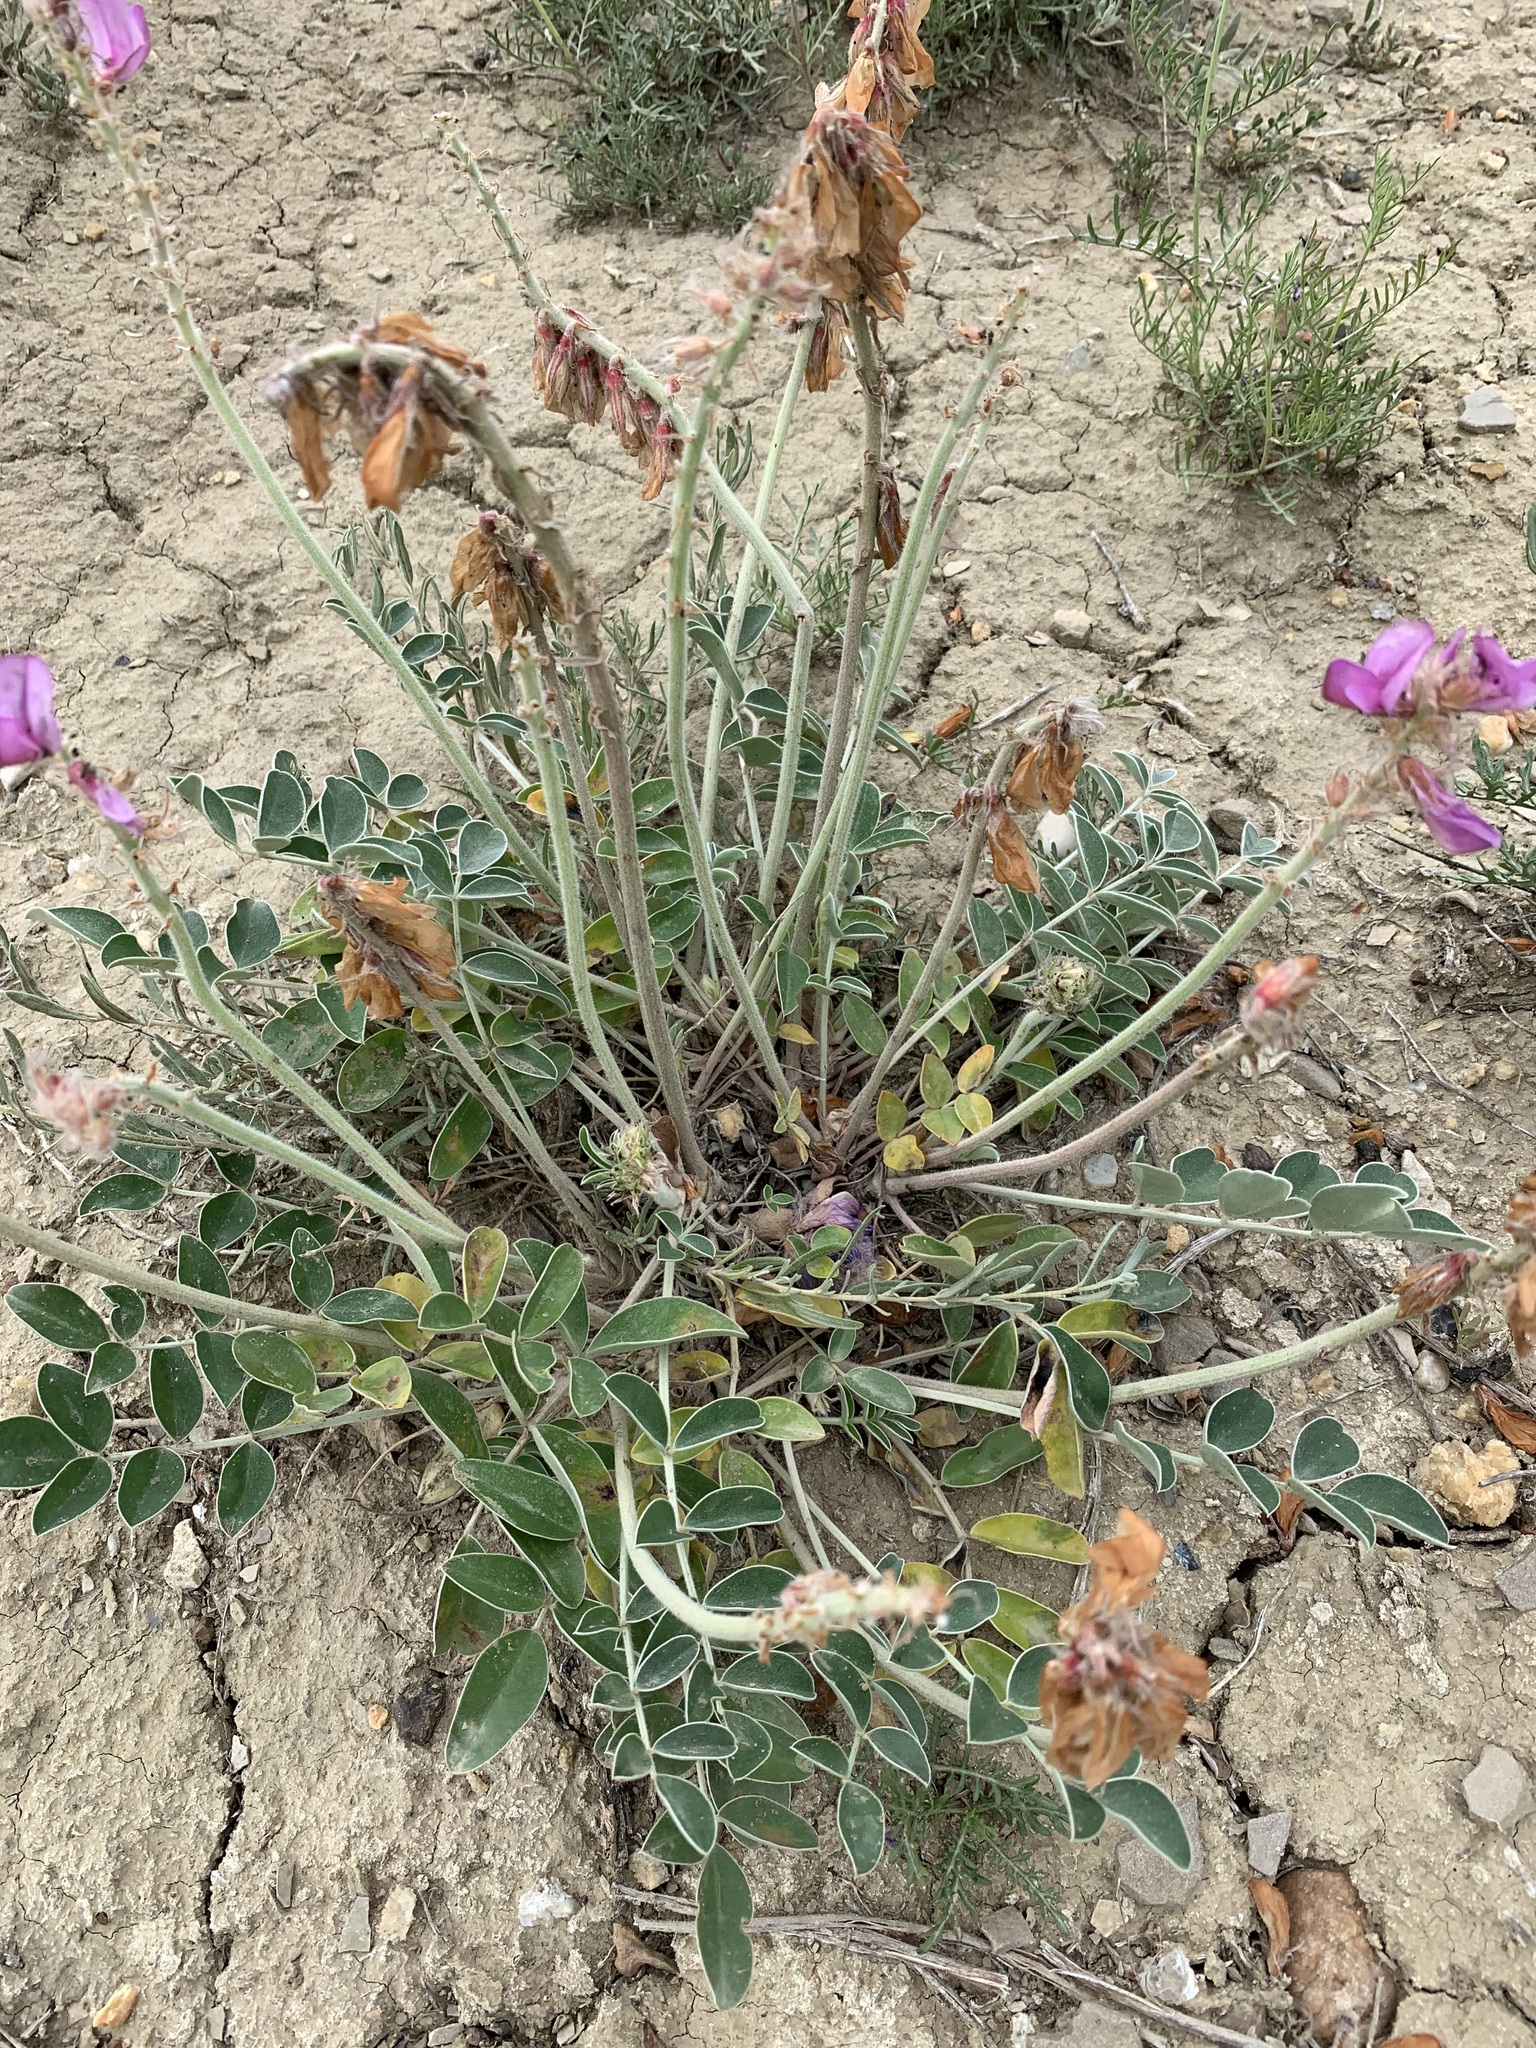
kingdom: Plantae
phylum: Tracheophyta
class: Magnoliopsida
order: Fabales
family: Fabaceae
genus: Hedysarum
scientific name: Hedysarum argyrophyllum
